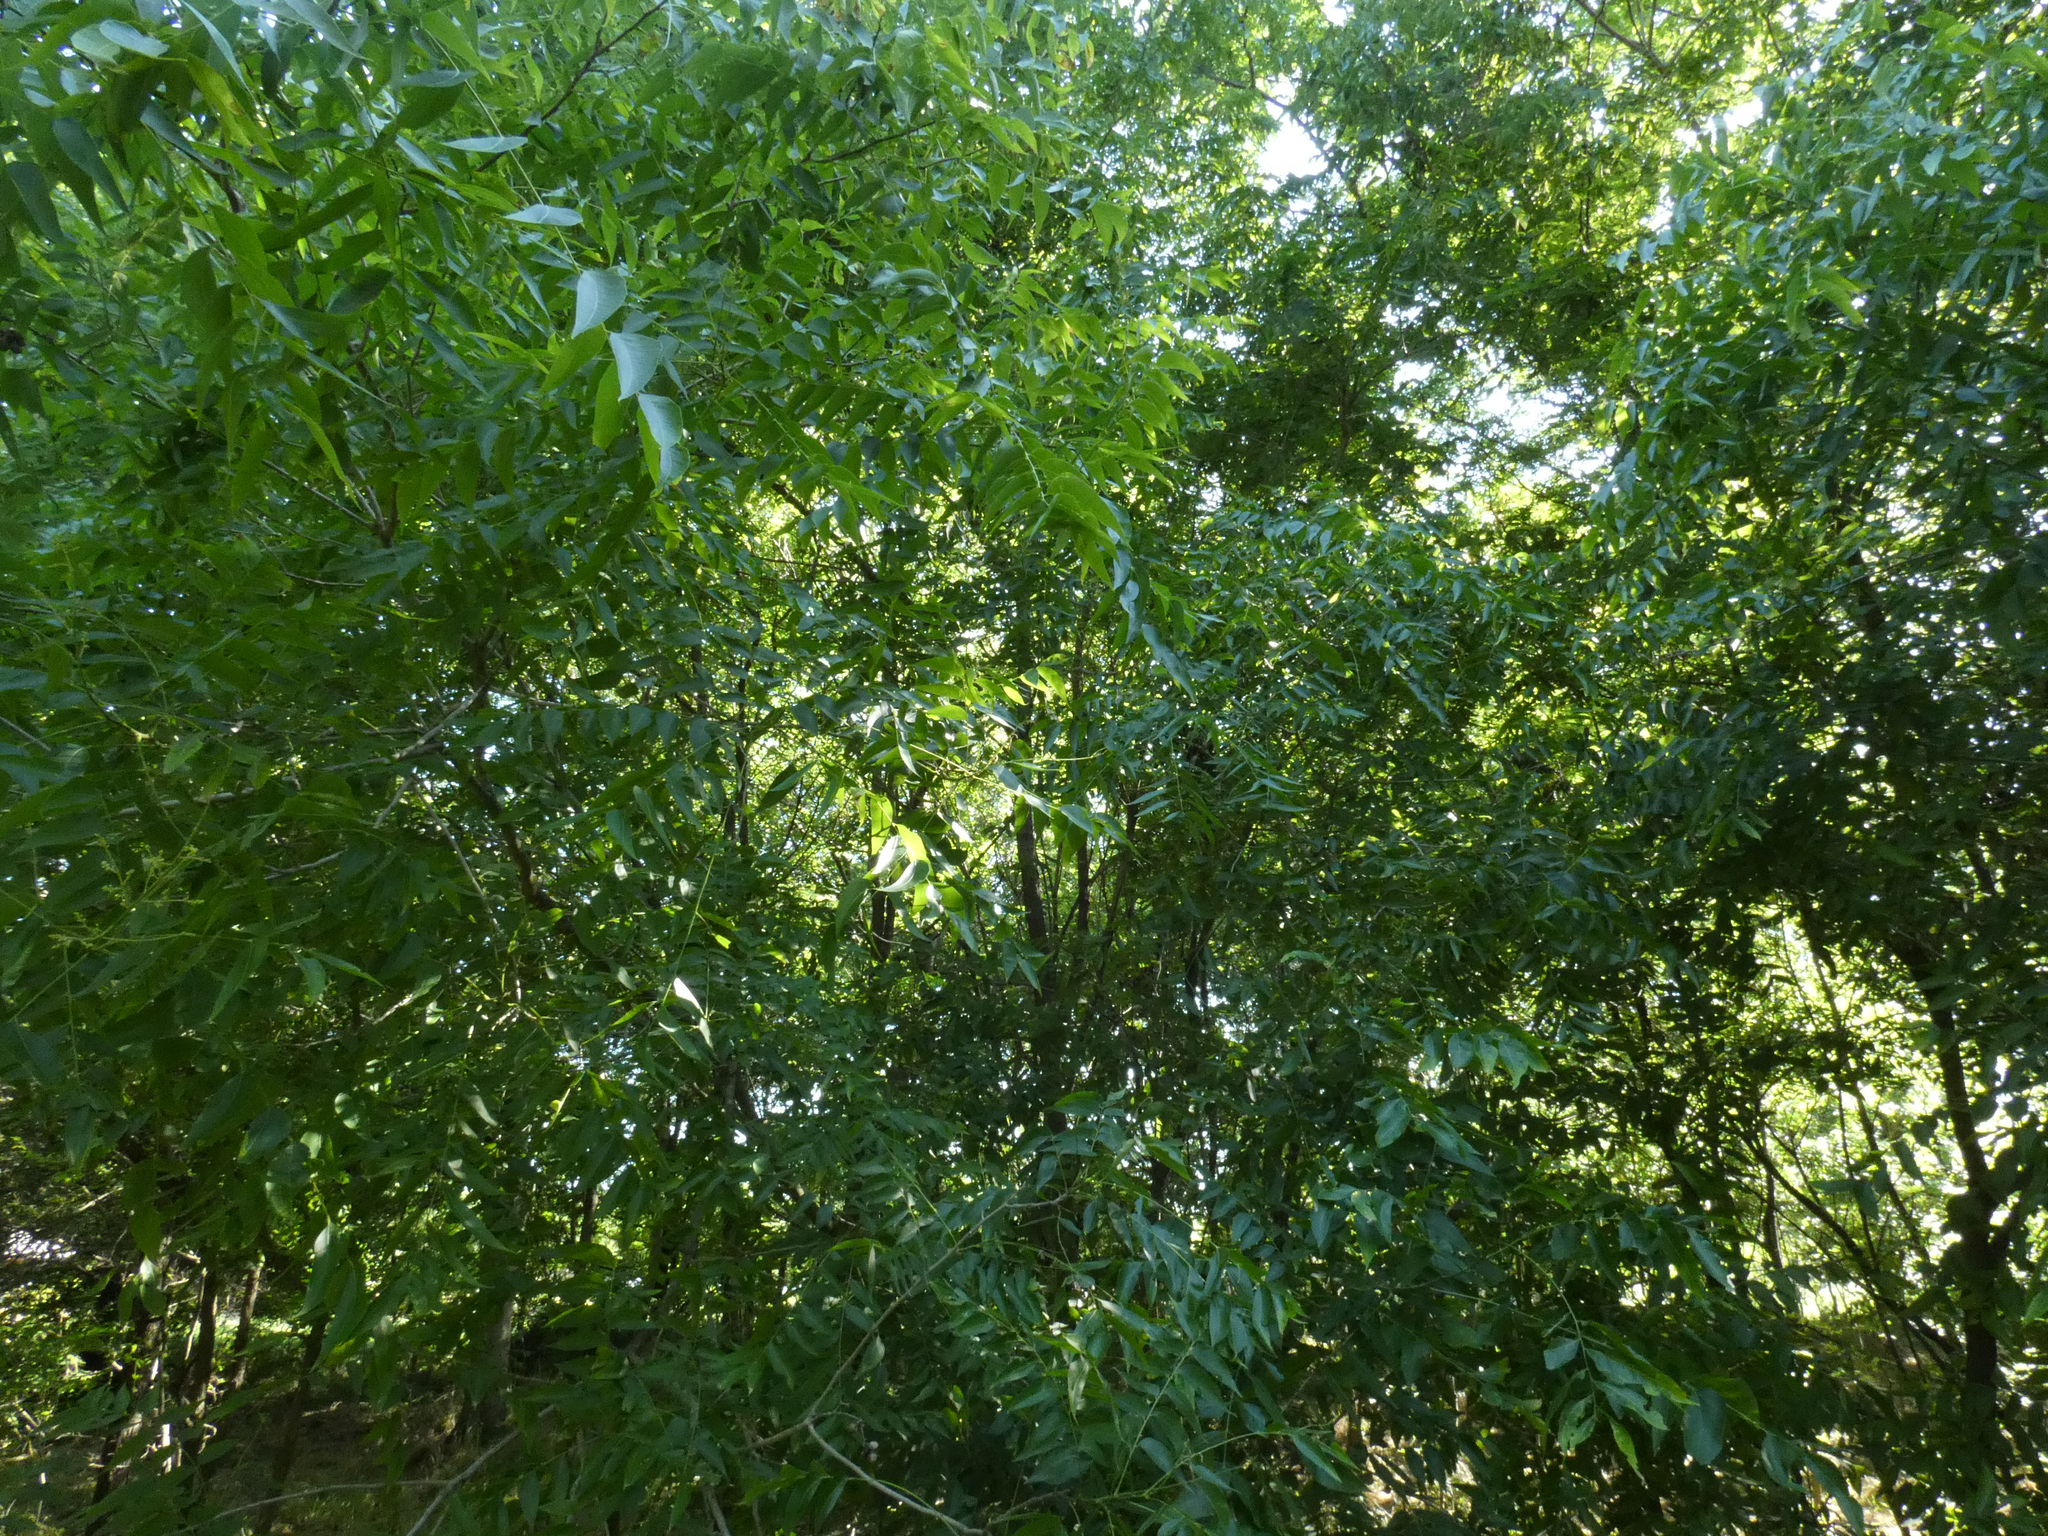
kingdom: Plantae
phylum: Tracheophyta
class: Magnoliopsida
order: Sapindales
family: Sapindaceae
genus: Sapindus
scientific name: Sapindus drummondii
